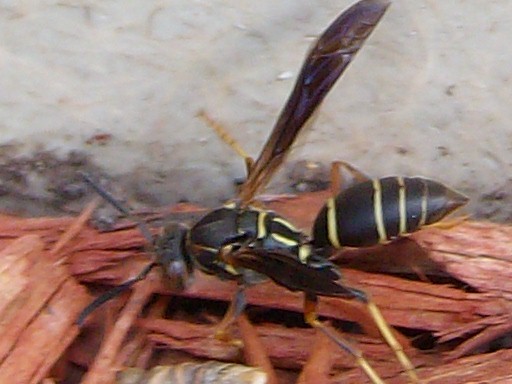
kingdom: Animalia
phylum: Arthropoda
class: Insecta
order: Hymenoptera
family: Eumenidae
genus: Polistes
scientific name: Polistes fuscatus
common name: Dark paper wasp
